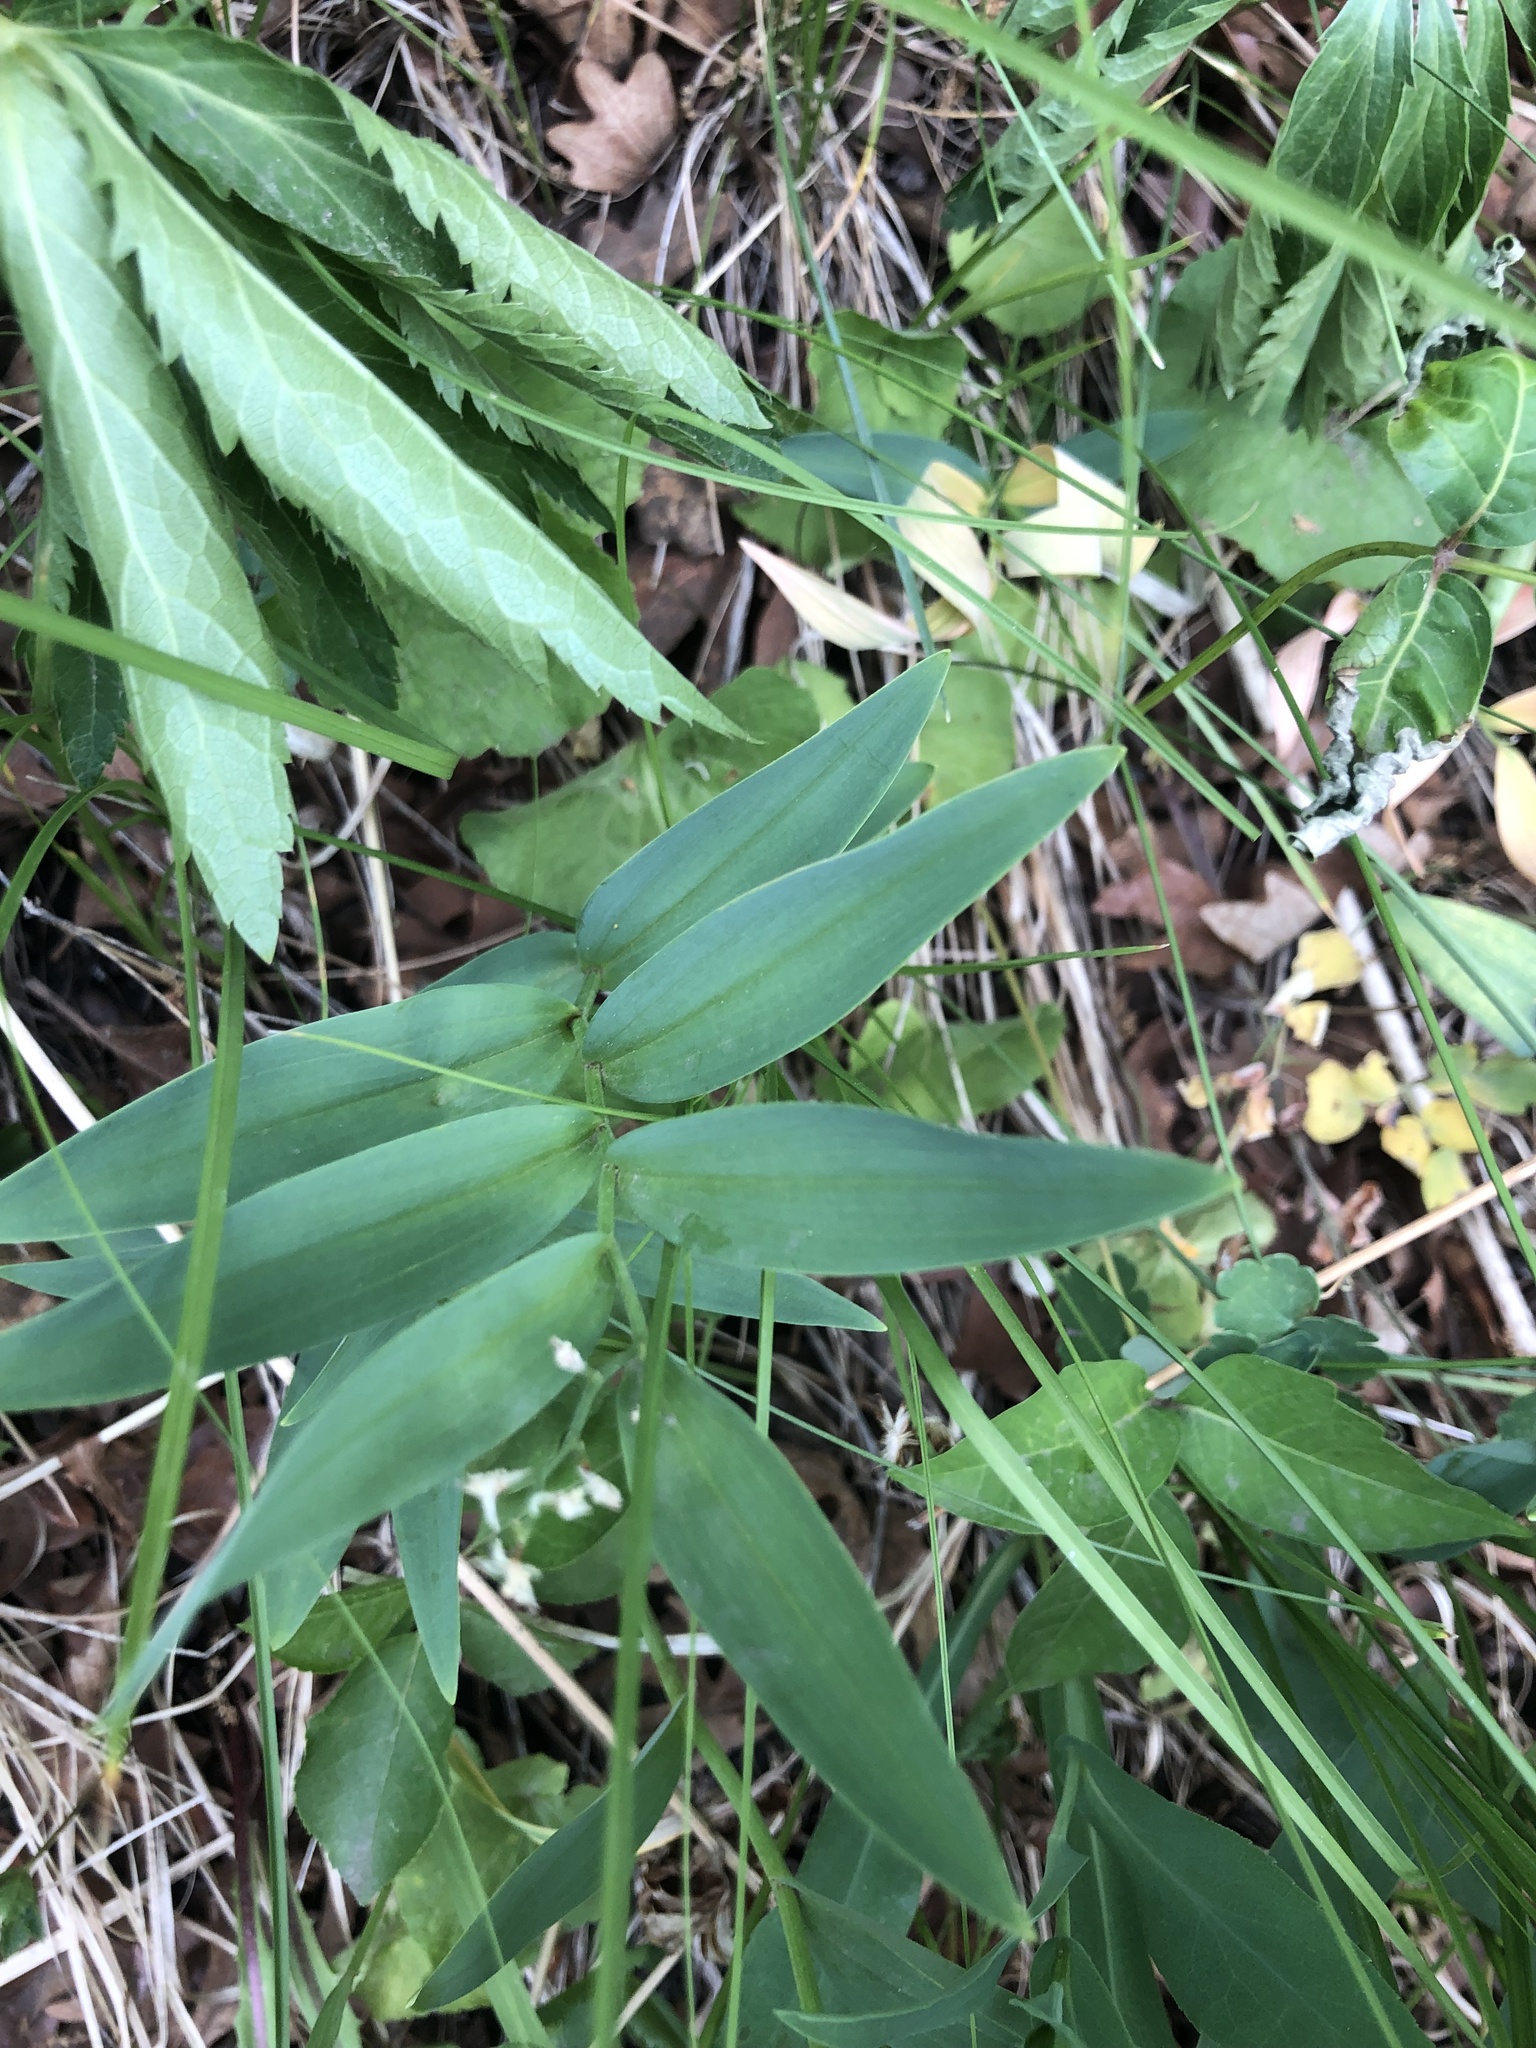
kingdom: Plantae
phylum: Tracheophyta
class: Liliopsida
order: Asparagales
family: Asparagaceae
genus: Maianthemum
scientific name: Maianthemum stellatum
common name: Little false solomon's seal
